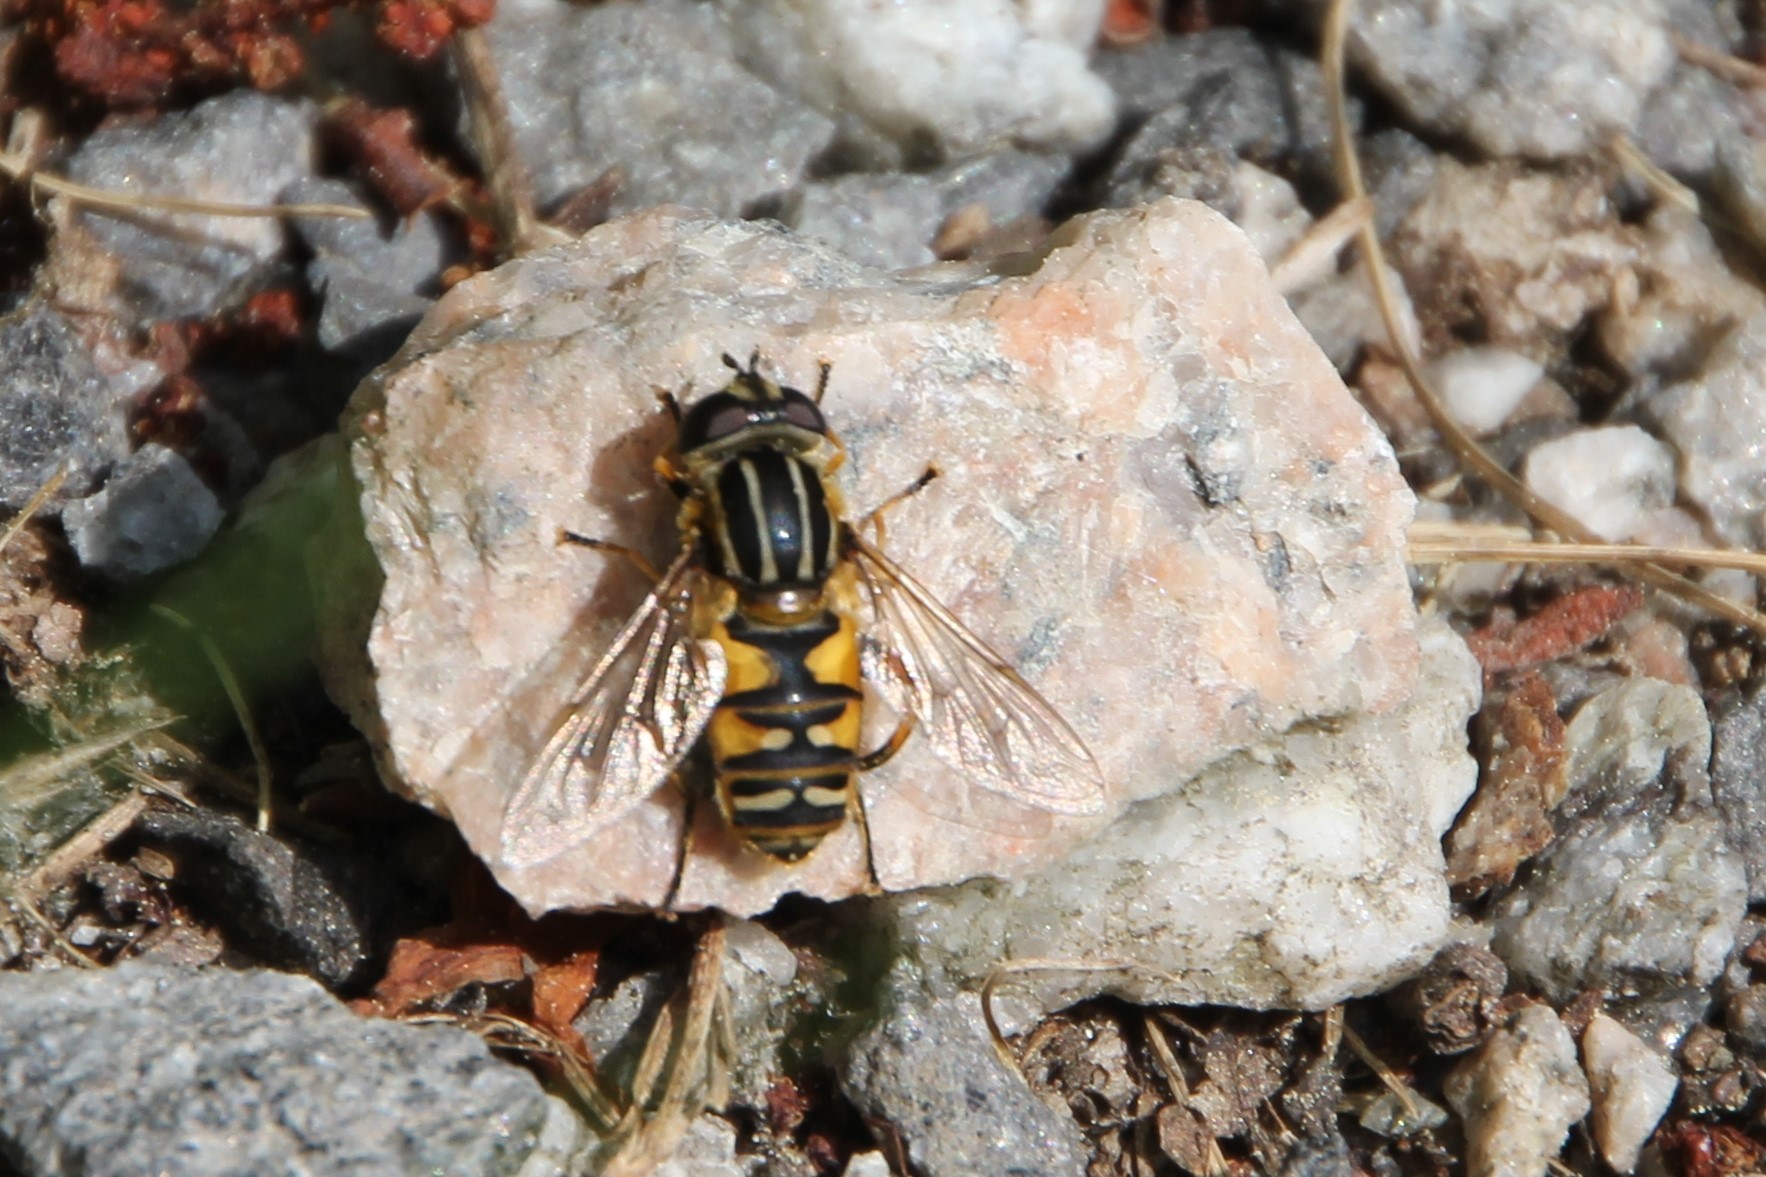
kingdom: Animalia
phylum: Arthropoda
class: Insecta
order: Diptera
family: Syrphidae
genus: Helophilus
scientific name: Helophilus pendulus
